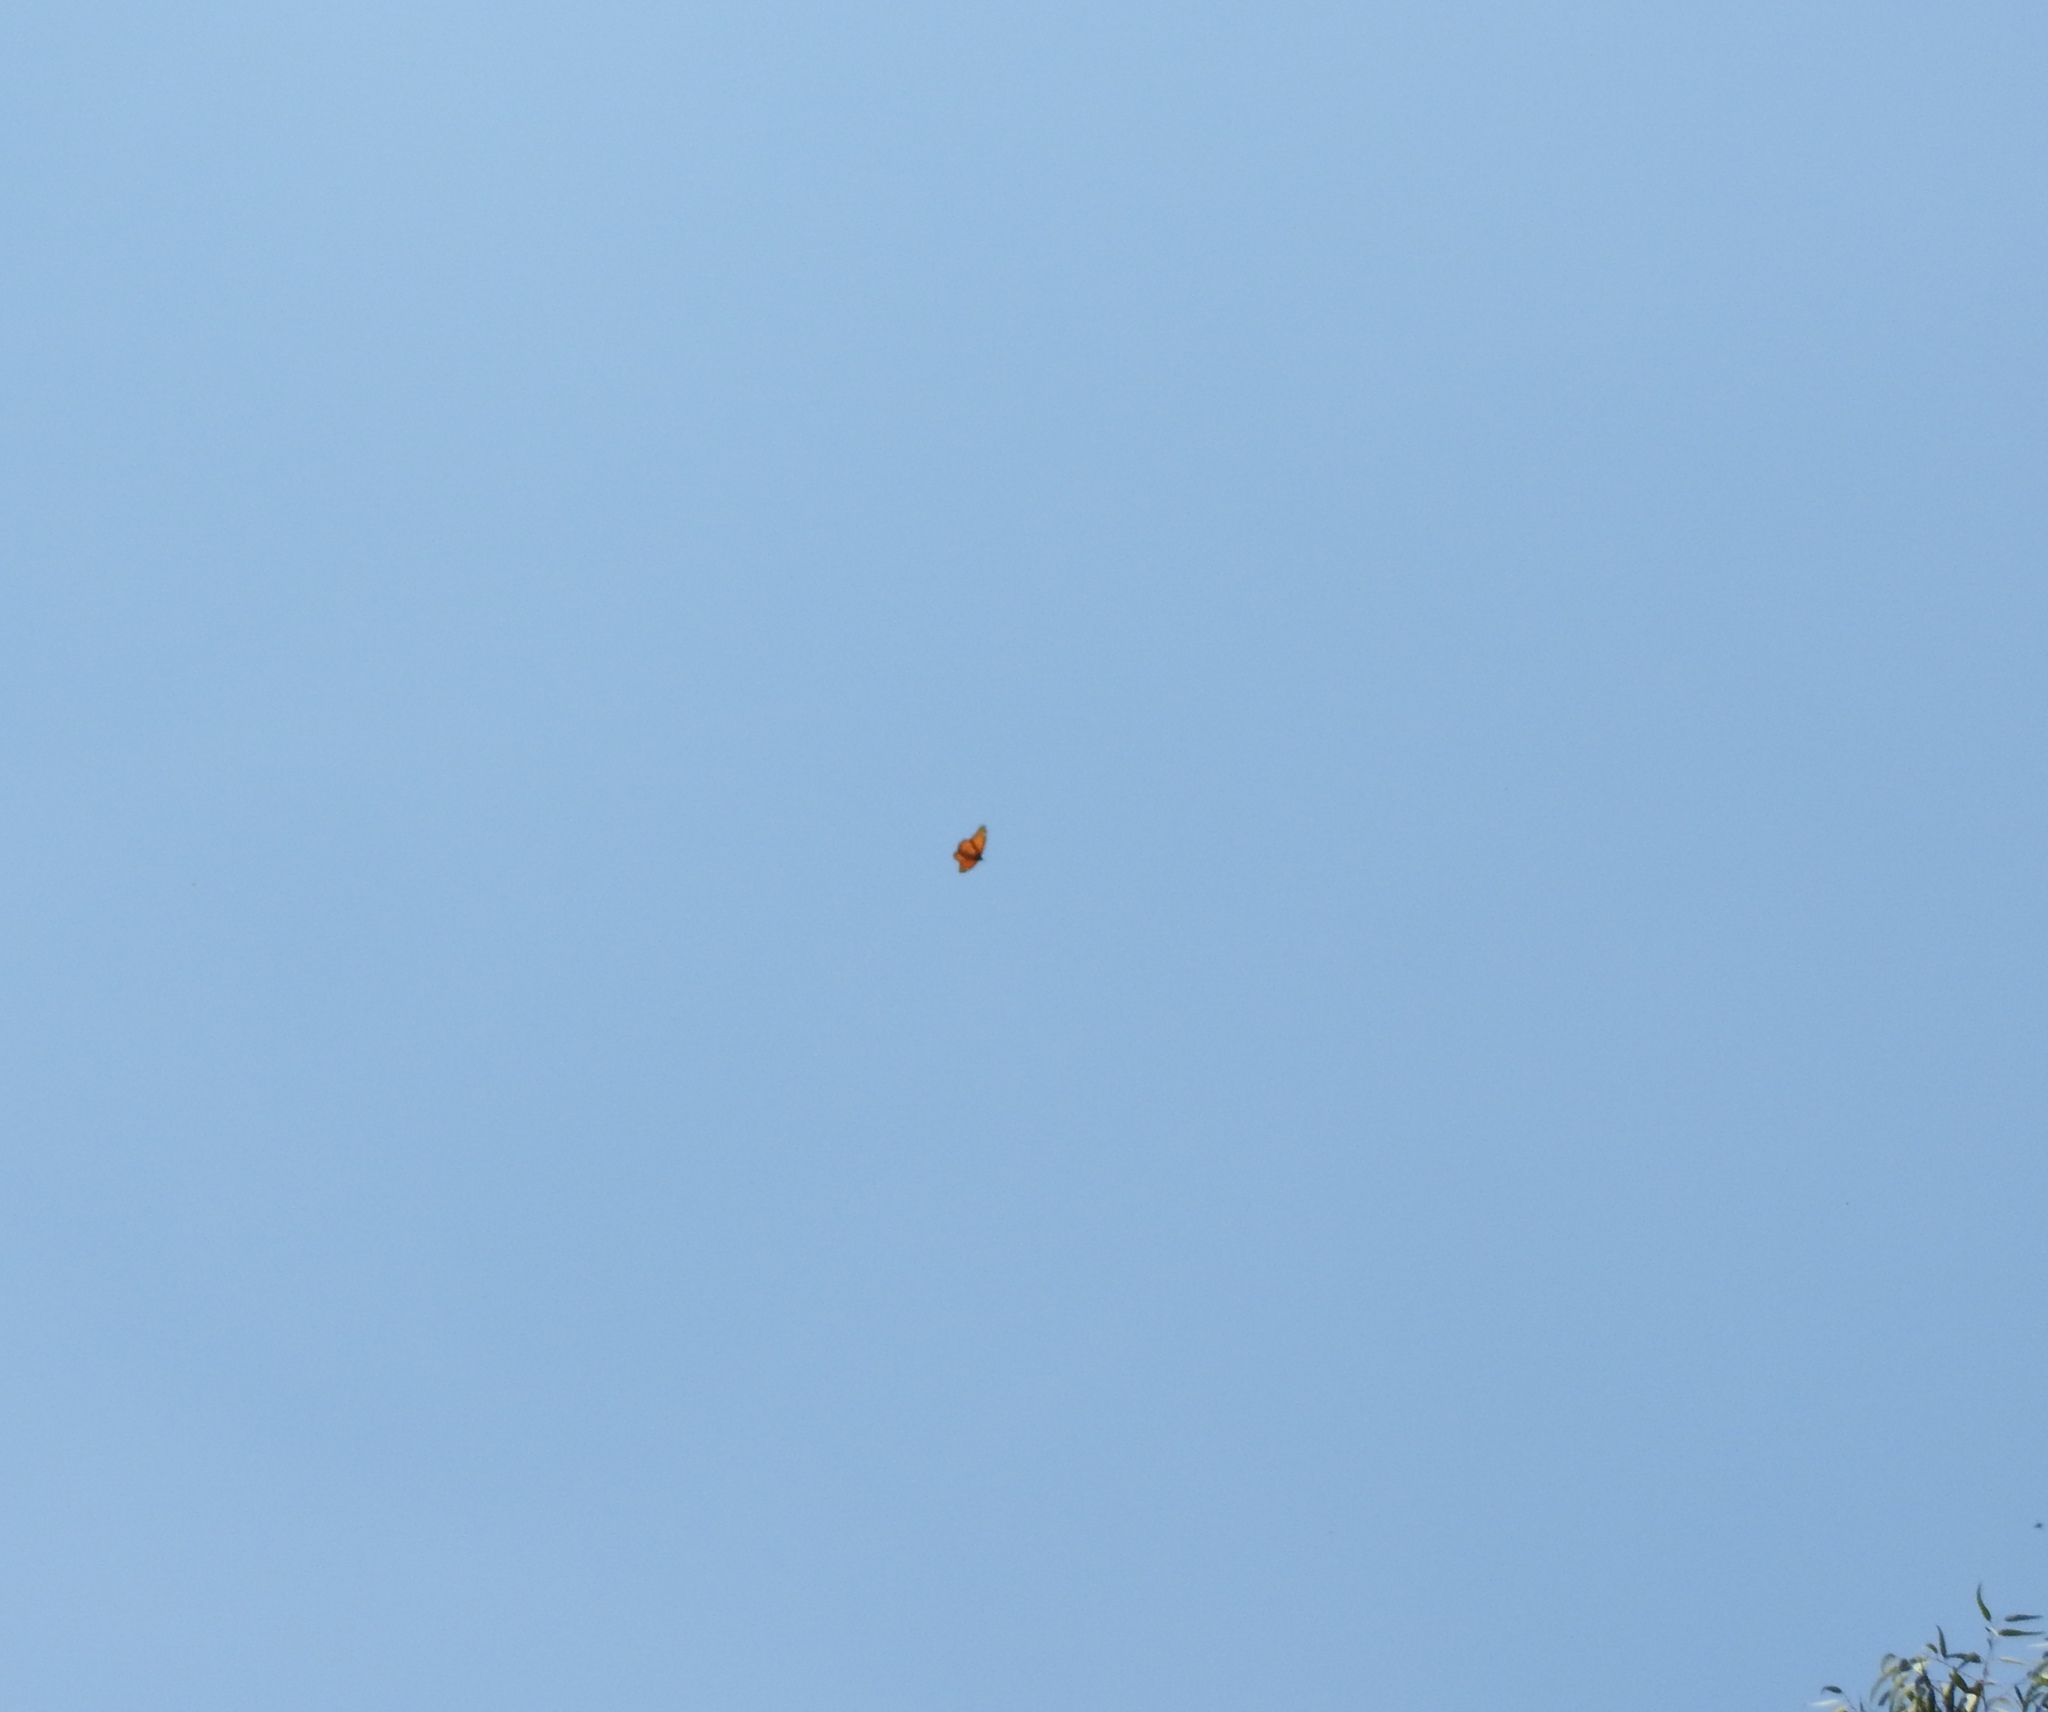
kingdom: Animalia
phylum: Arthropoda
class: Insecta
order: Lepidoptera
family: Nymphalidae
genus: Danaus
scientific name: Danaus plexippus
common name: Monarch
